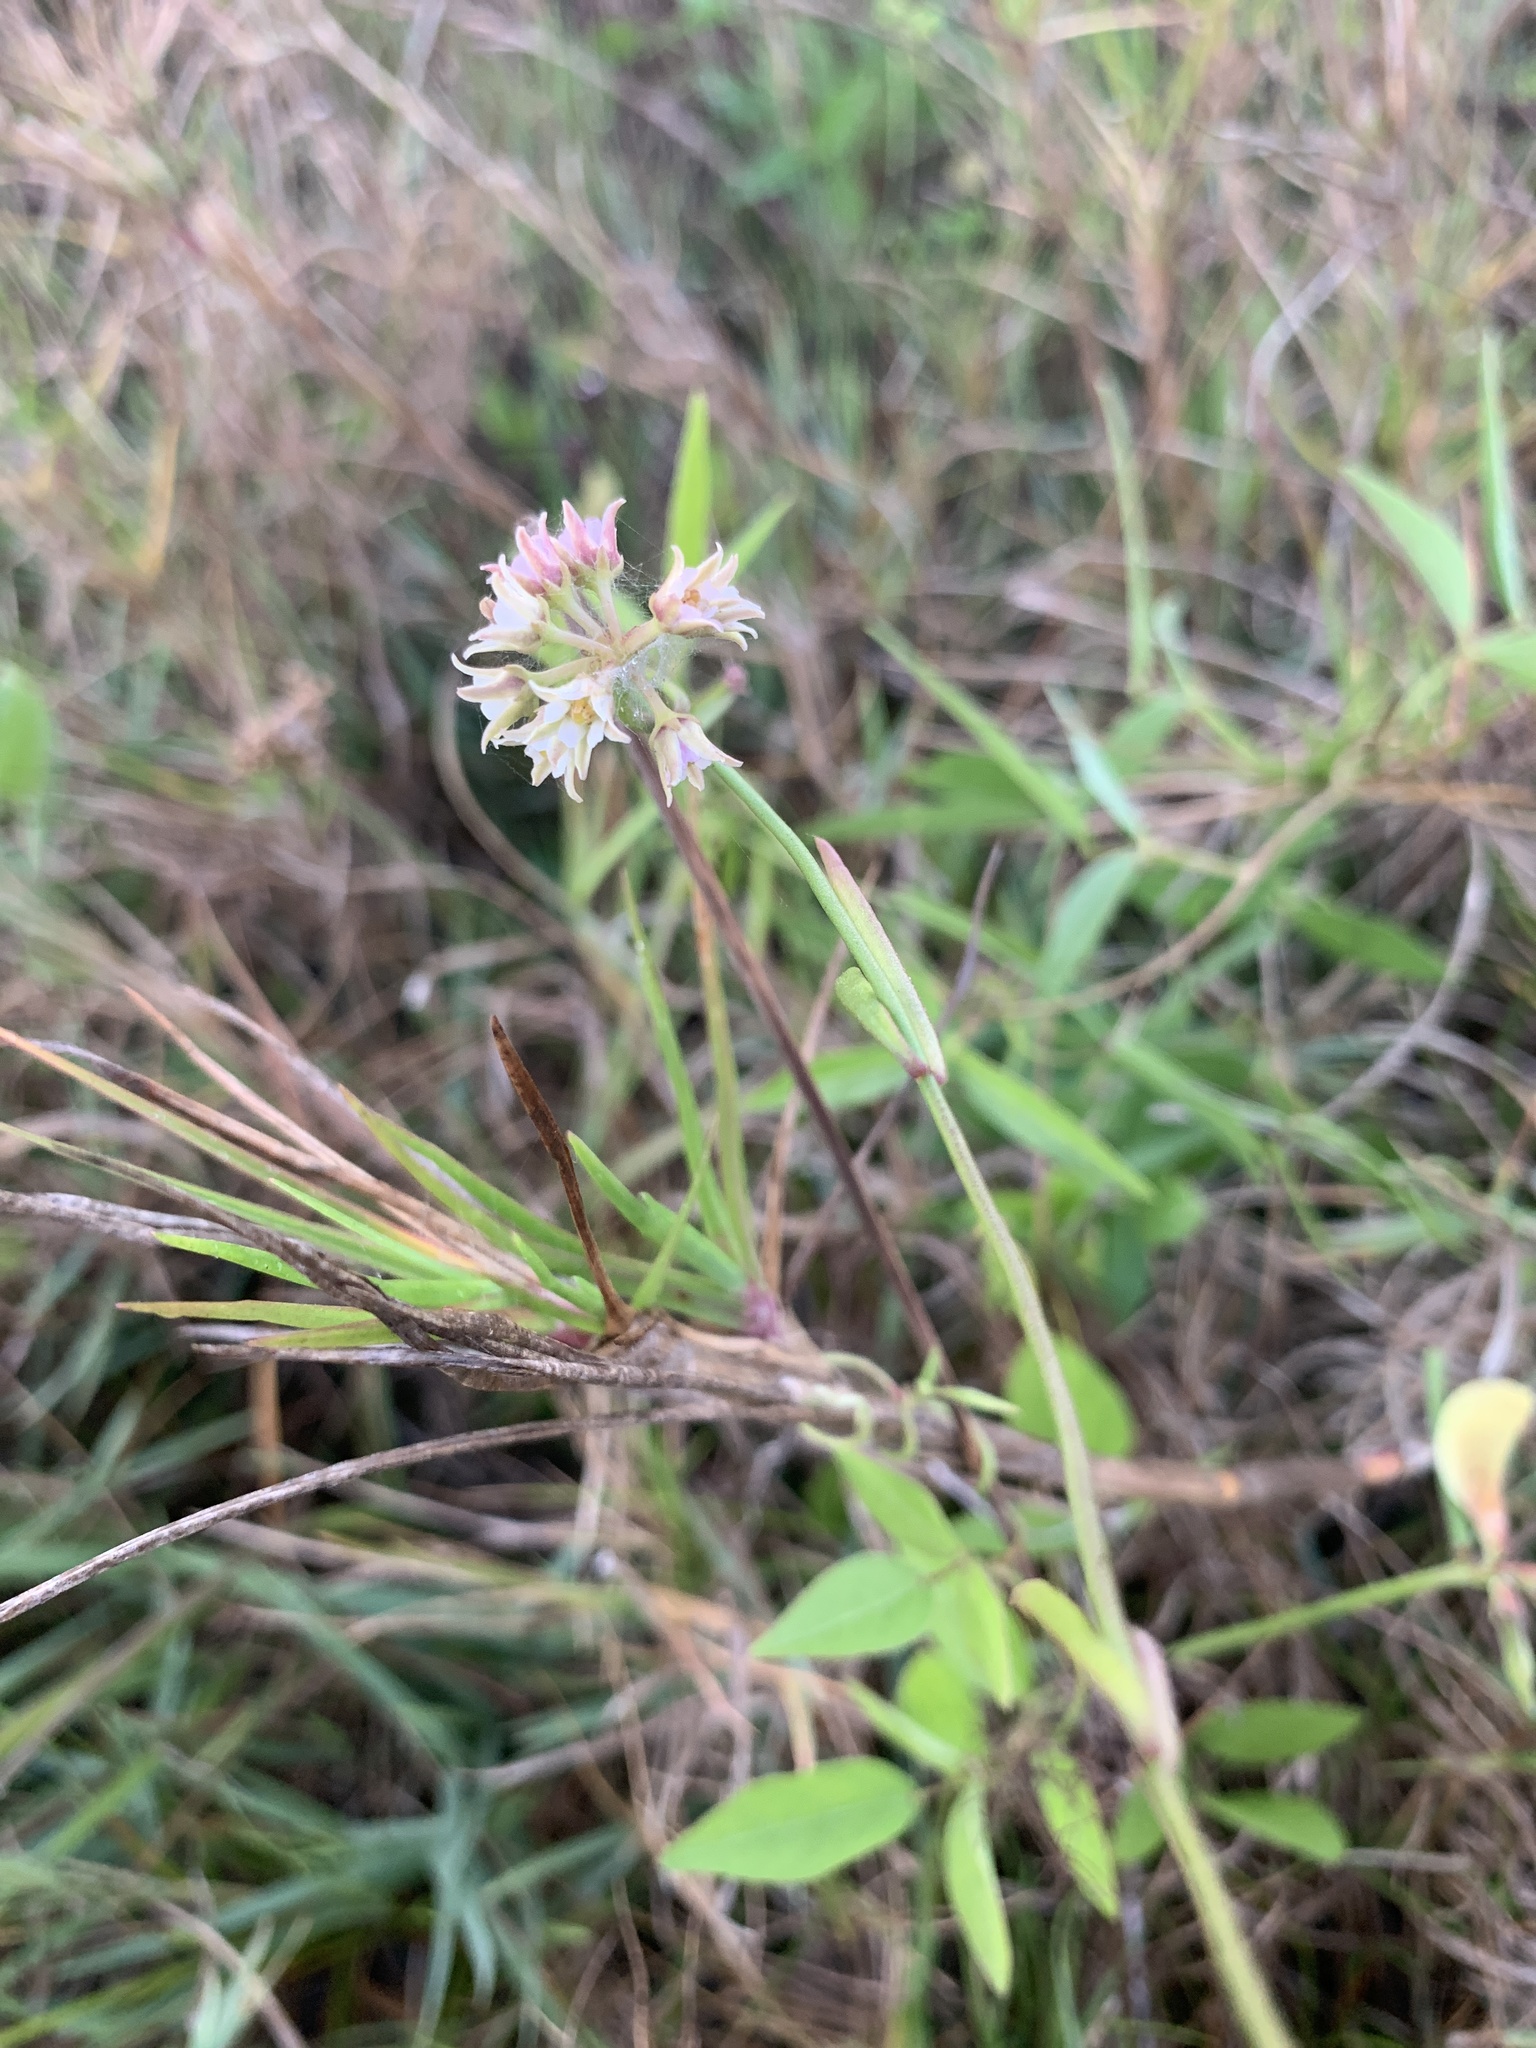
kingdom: Plantae
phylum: Tracheophyta
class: Magnoliopsida
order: Gentianales
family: Apocynaceae
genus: Pattalias
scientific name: Pattalias
